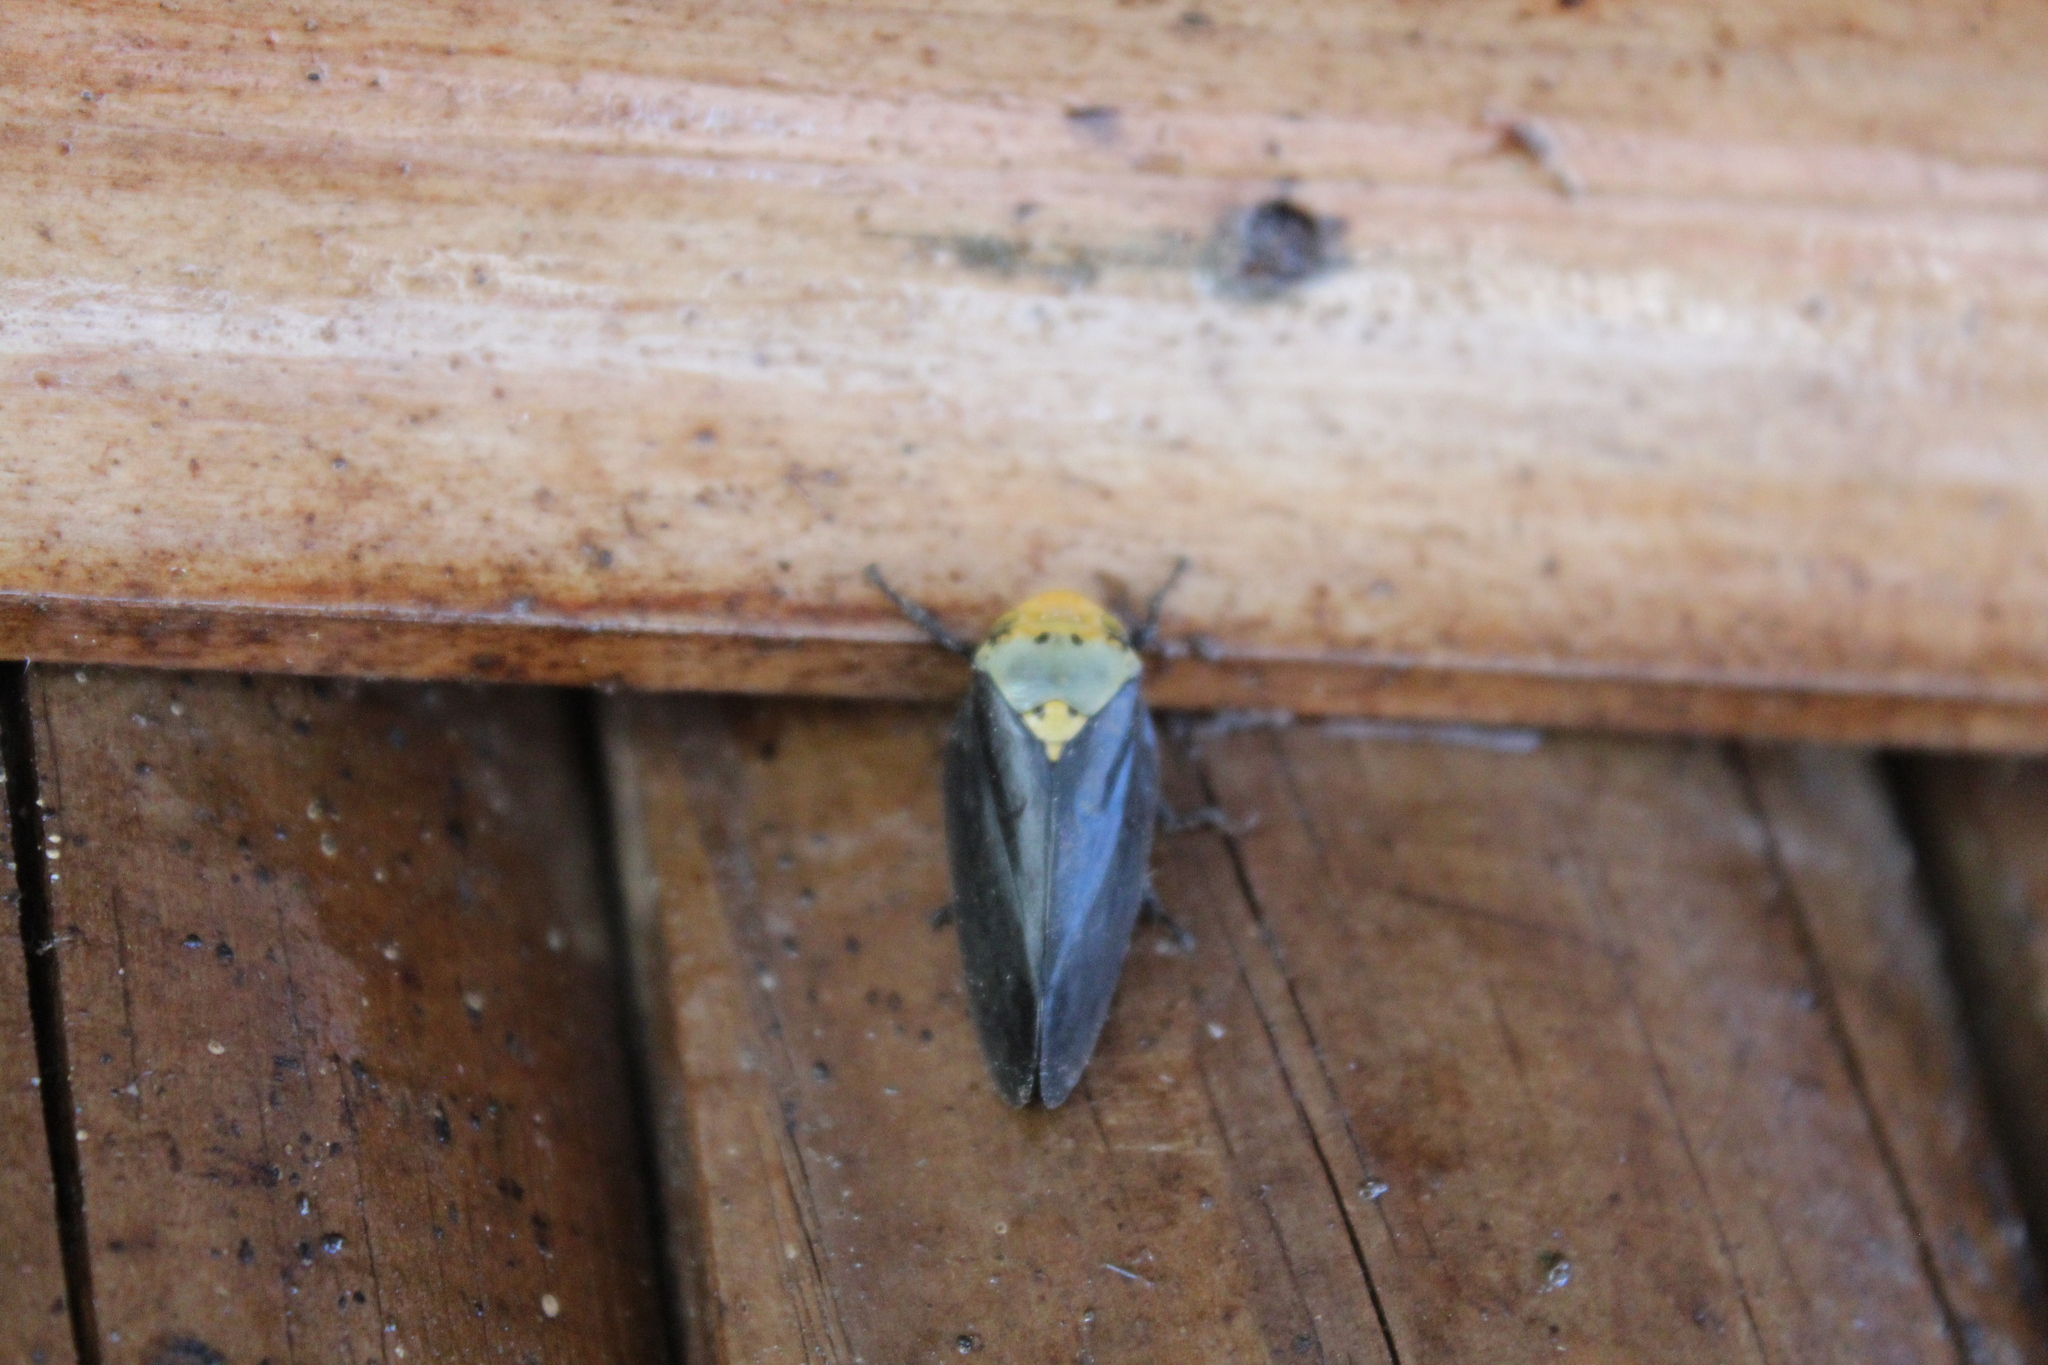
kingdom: Animalia
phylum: Arthropoda
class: Insecta
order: Hemiptera
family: Aphrophoridae
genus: Ptyelus
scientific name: Ptyelus goudoti
